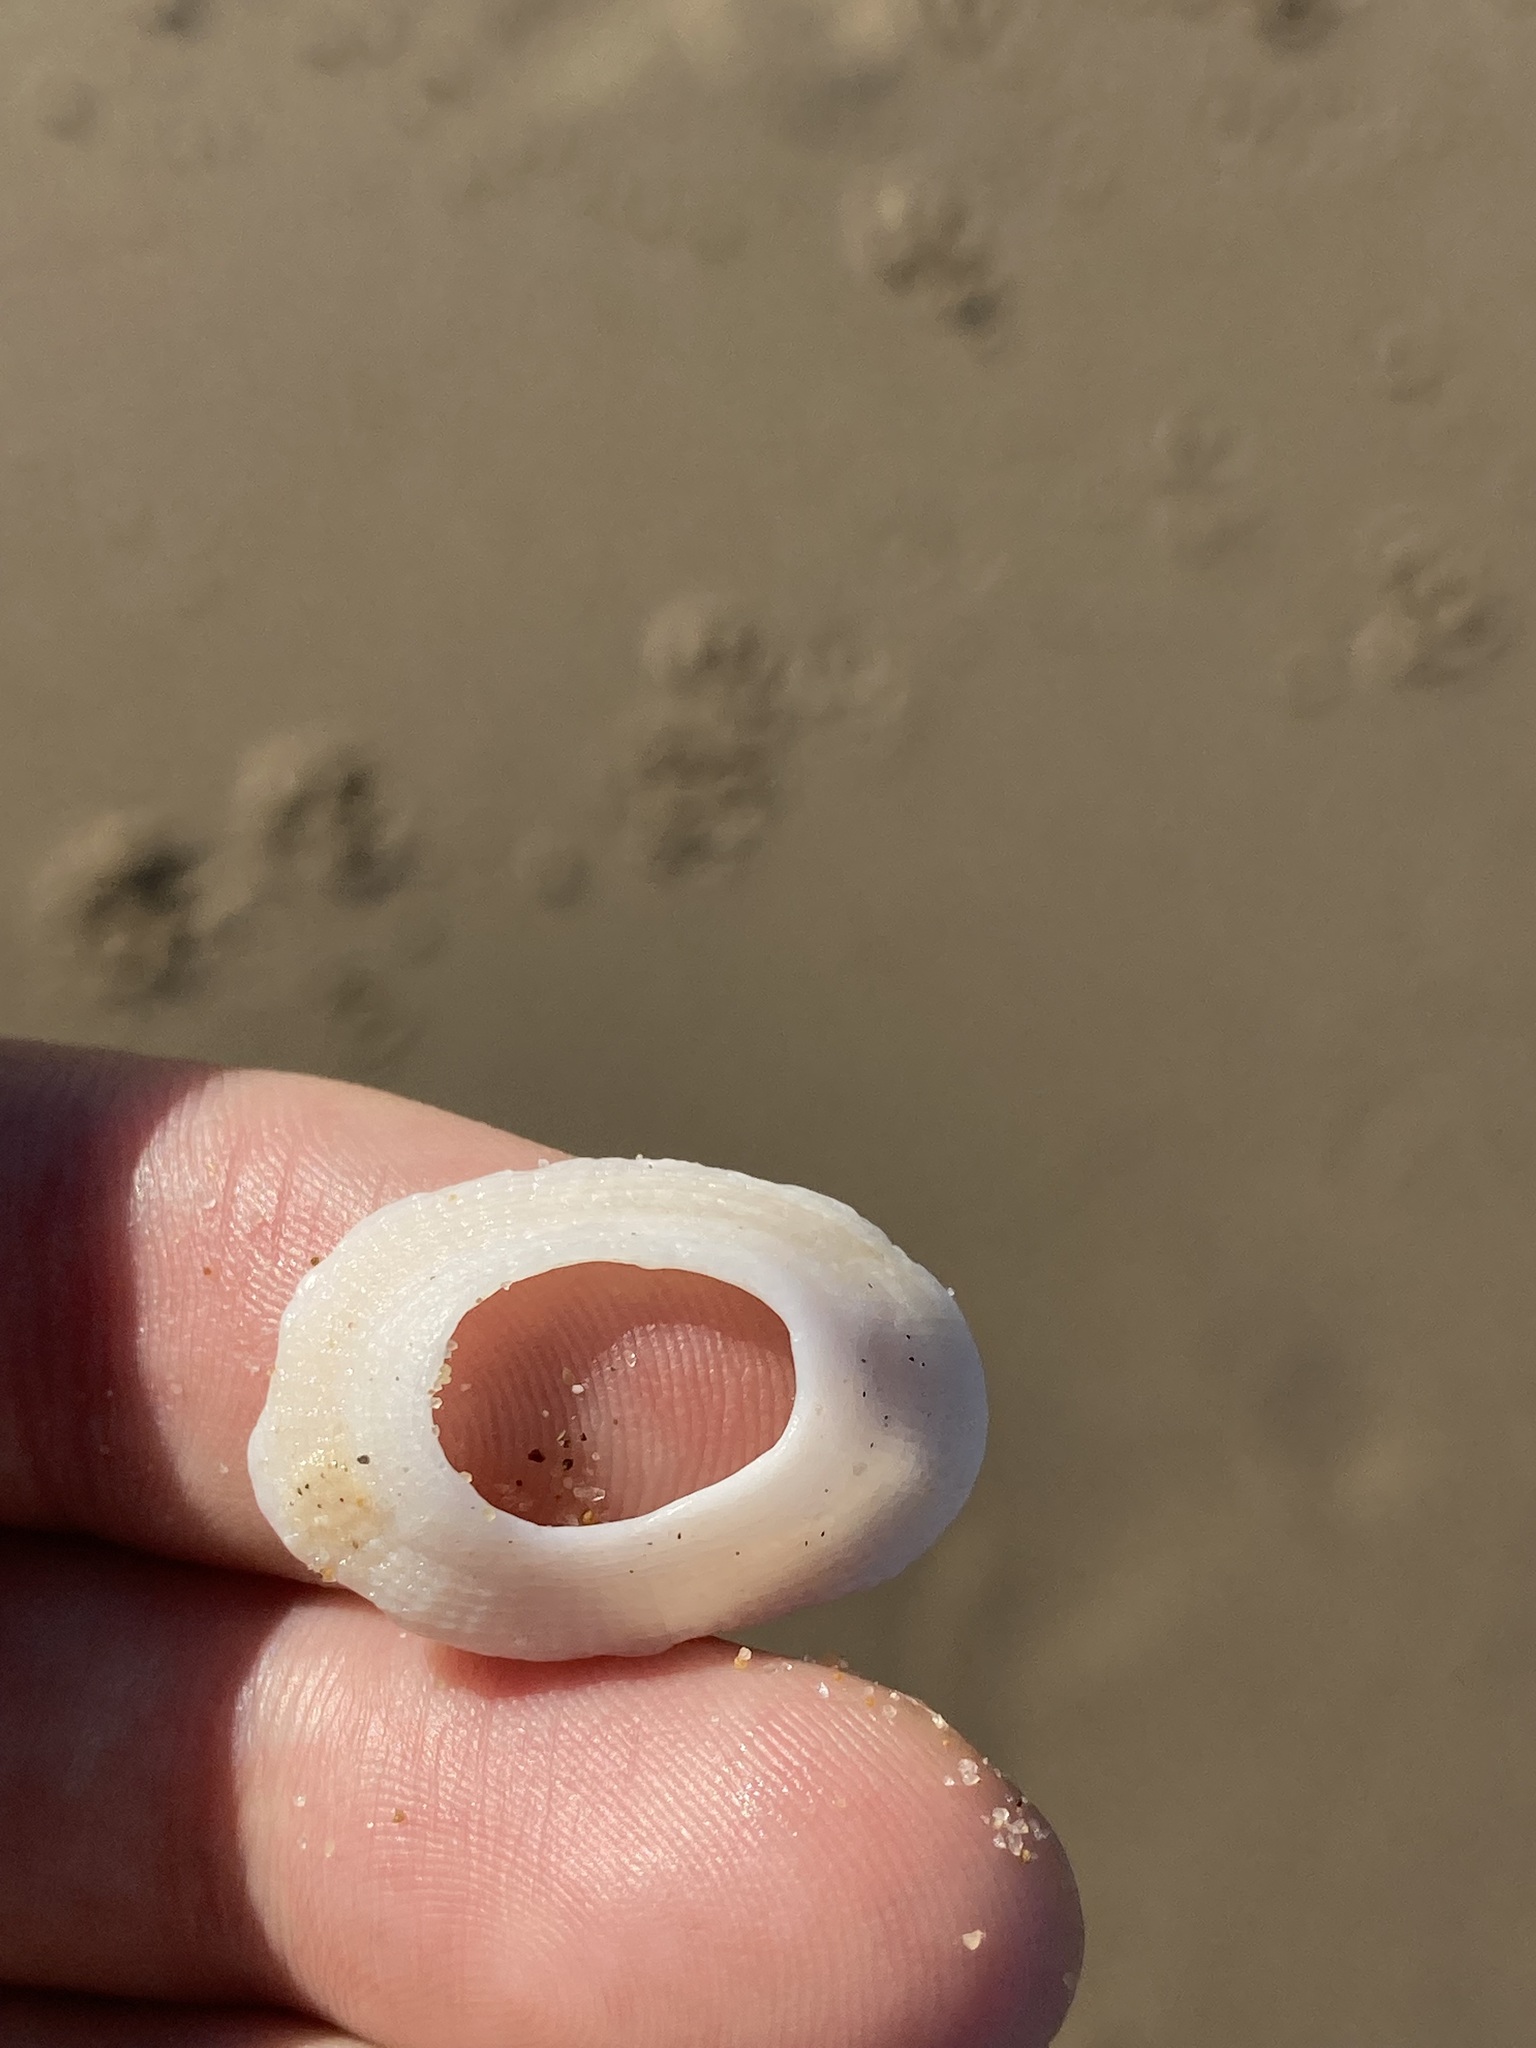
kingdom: Animalia
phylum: Mollusca
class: Gastropoda
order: Lepetellida
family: Fissurellidae
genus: Tugali
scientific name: Tugali parmophoidea
